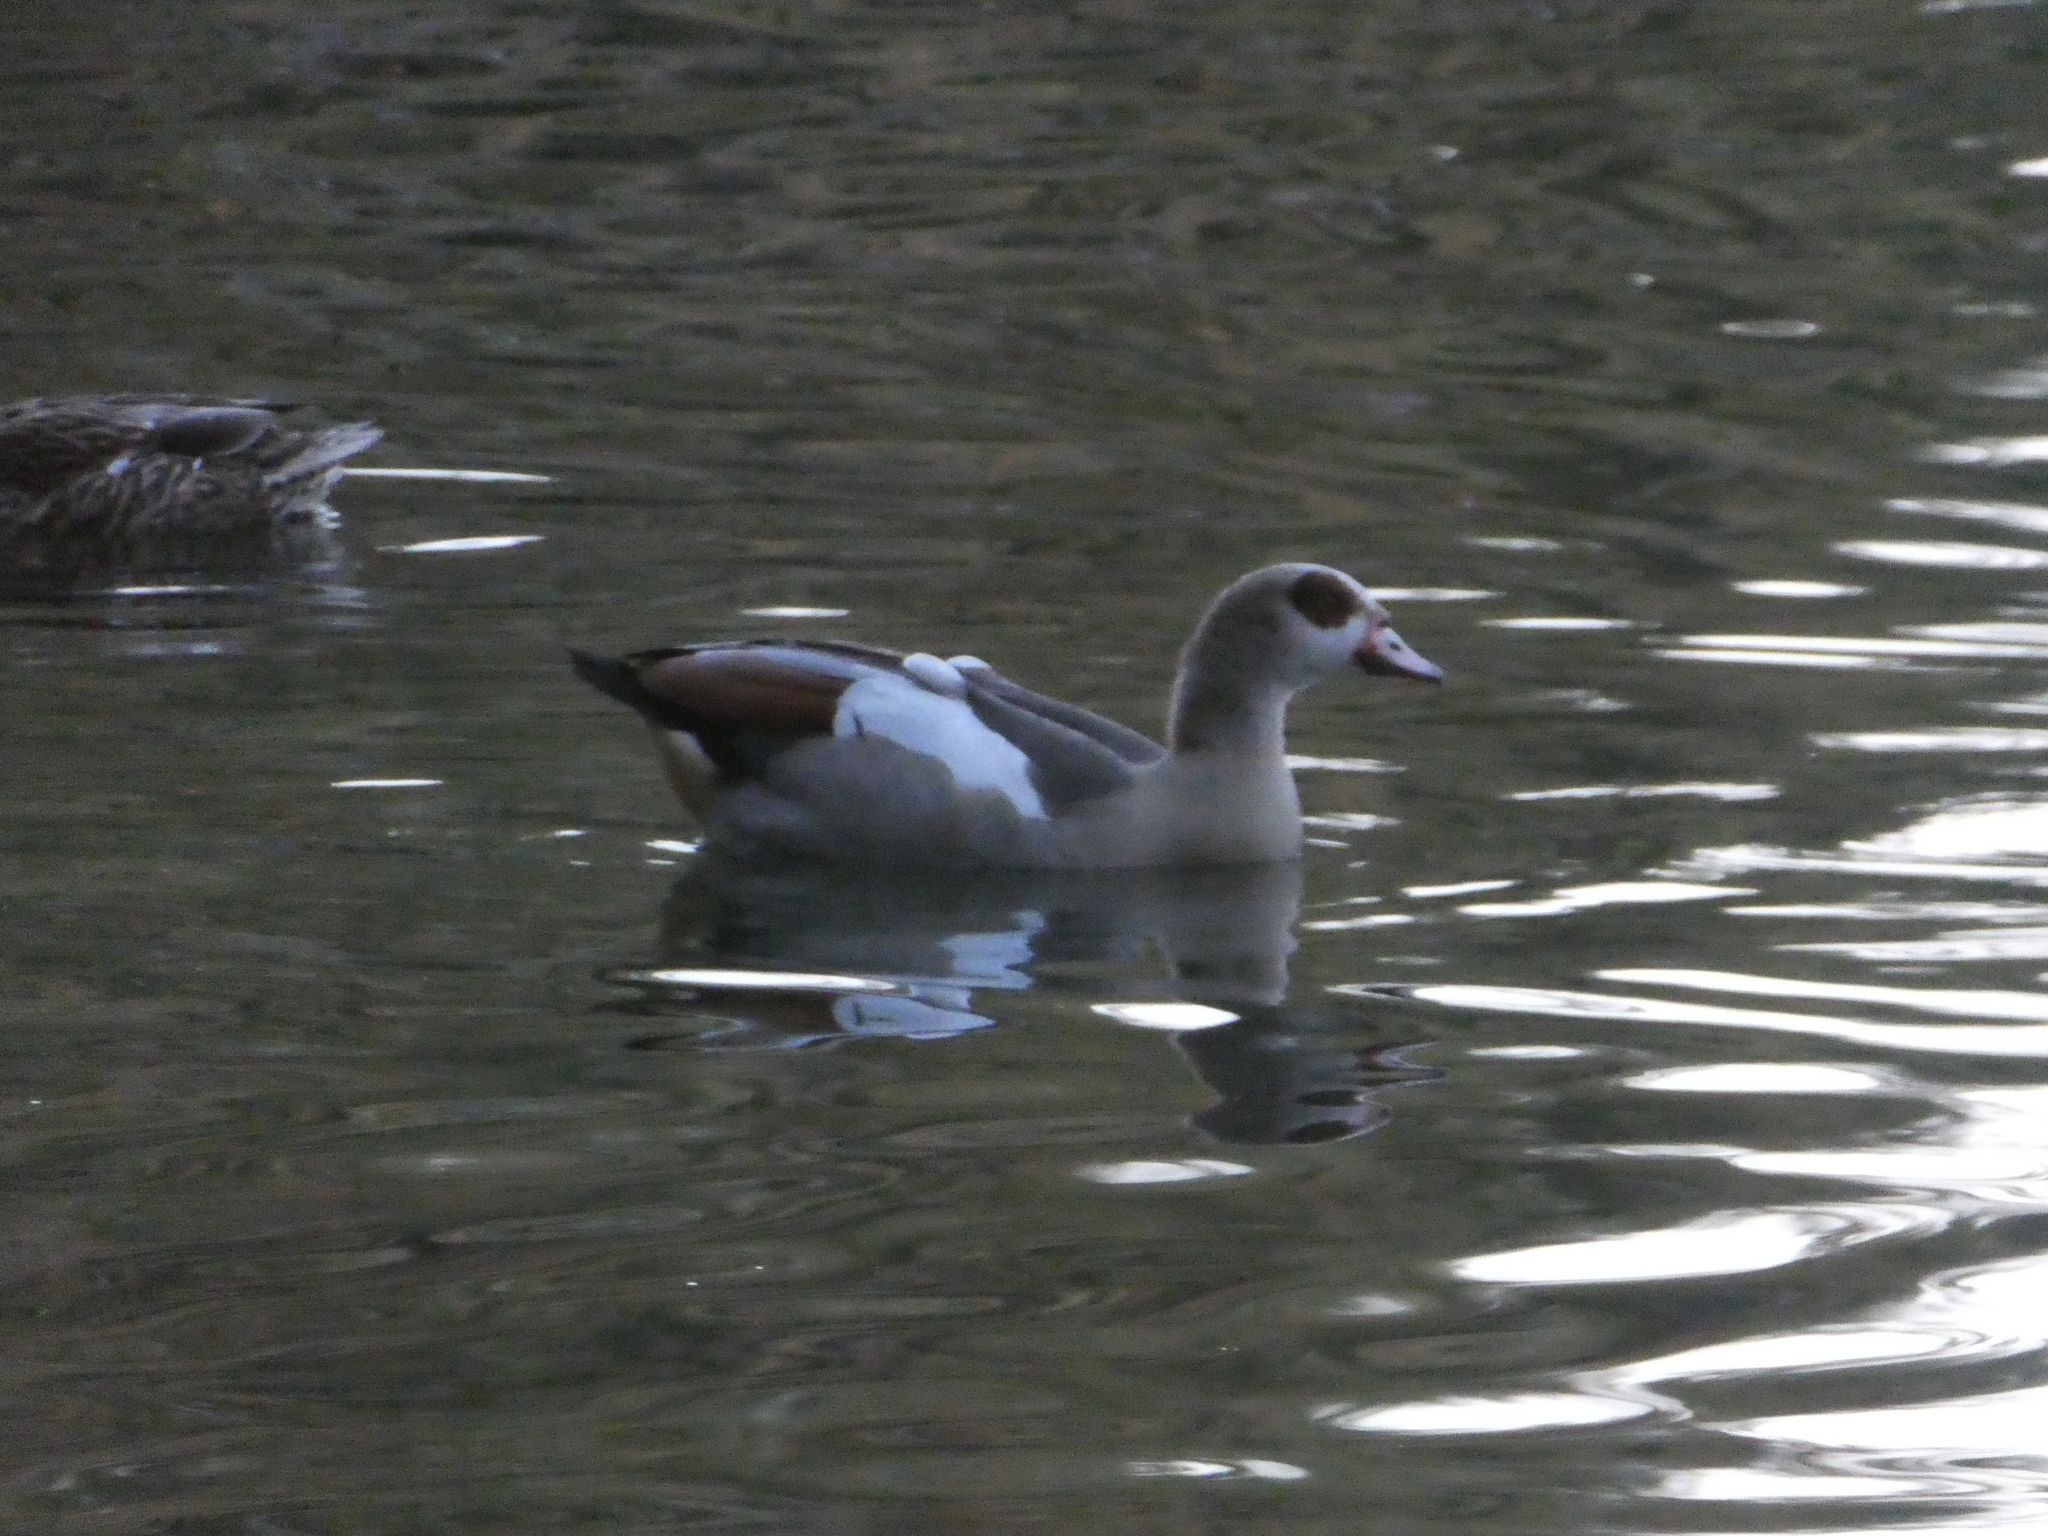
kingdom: Animalia
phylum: Chordata
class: Aves
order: Anseriformes
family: Anatidae
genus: Alopochen
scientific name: Alopochen aegyptiaca
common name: Egyptian goose
